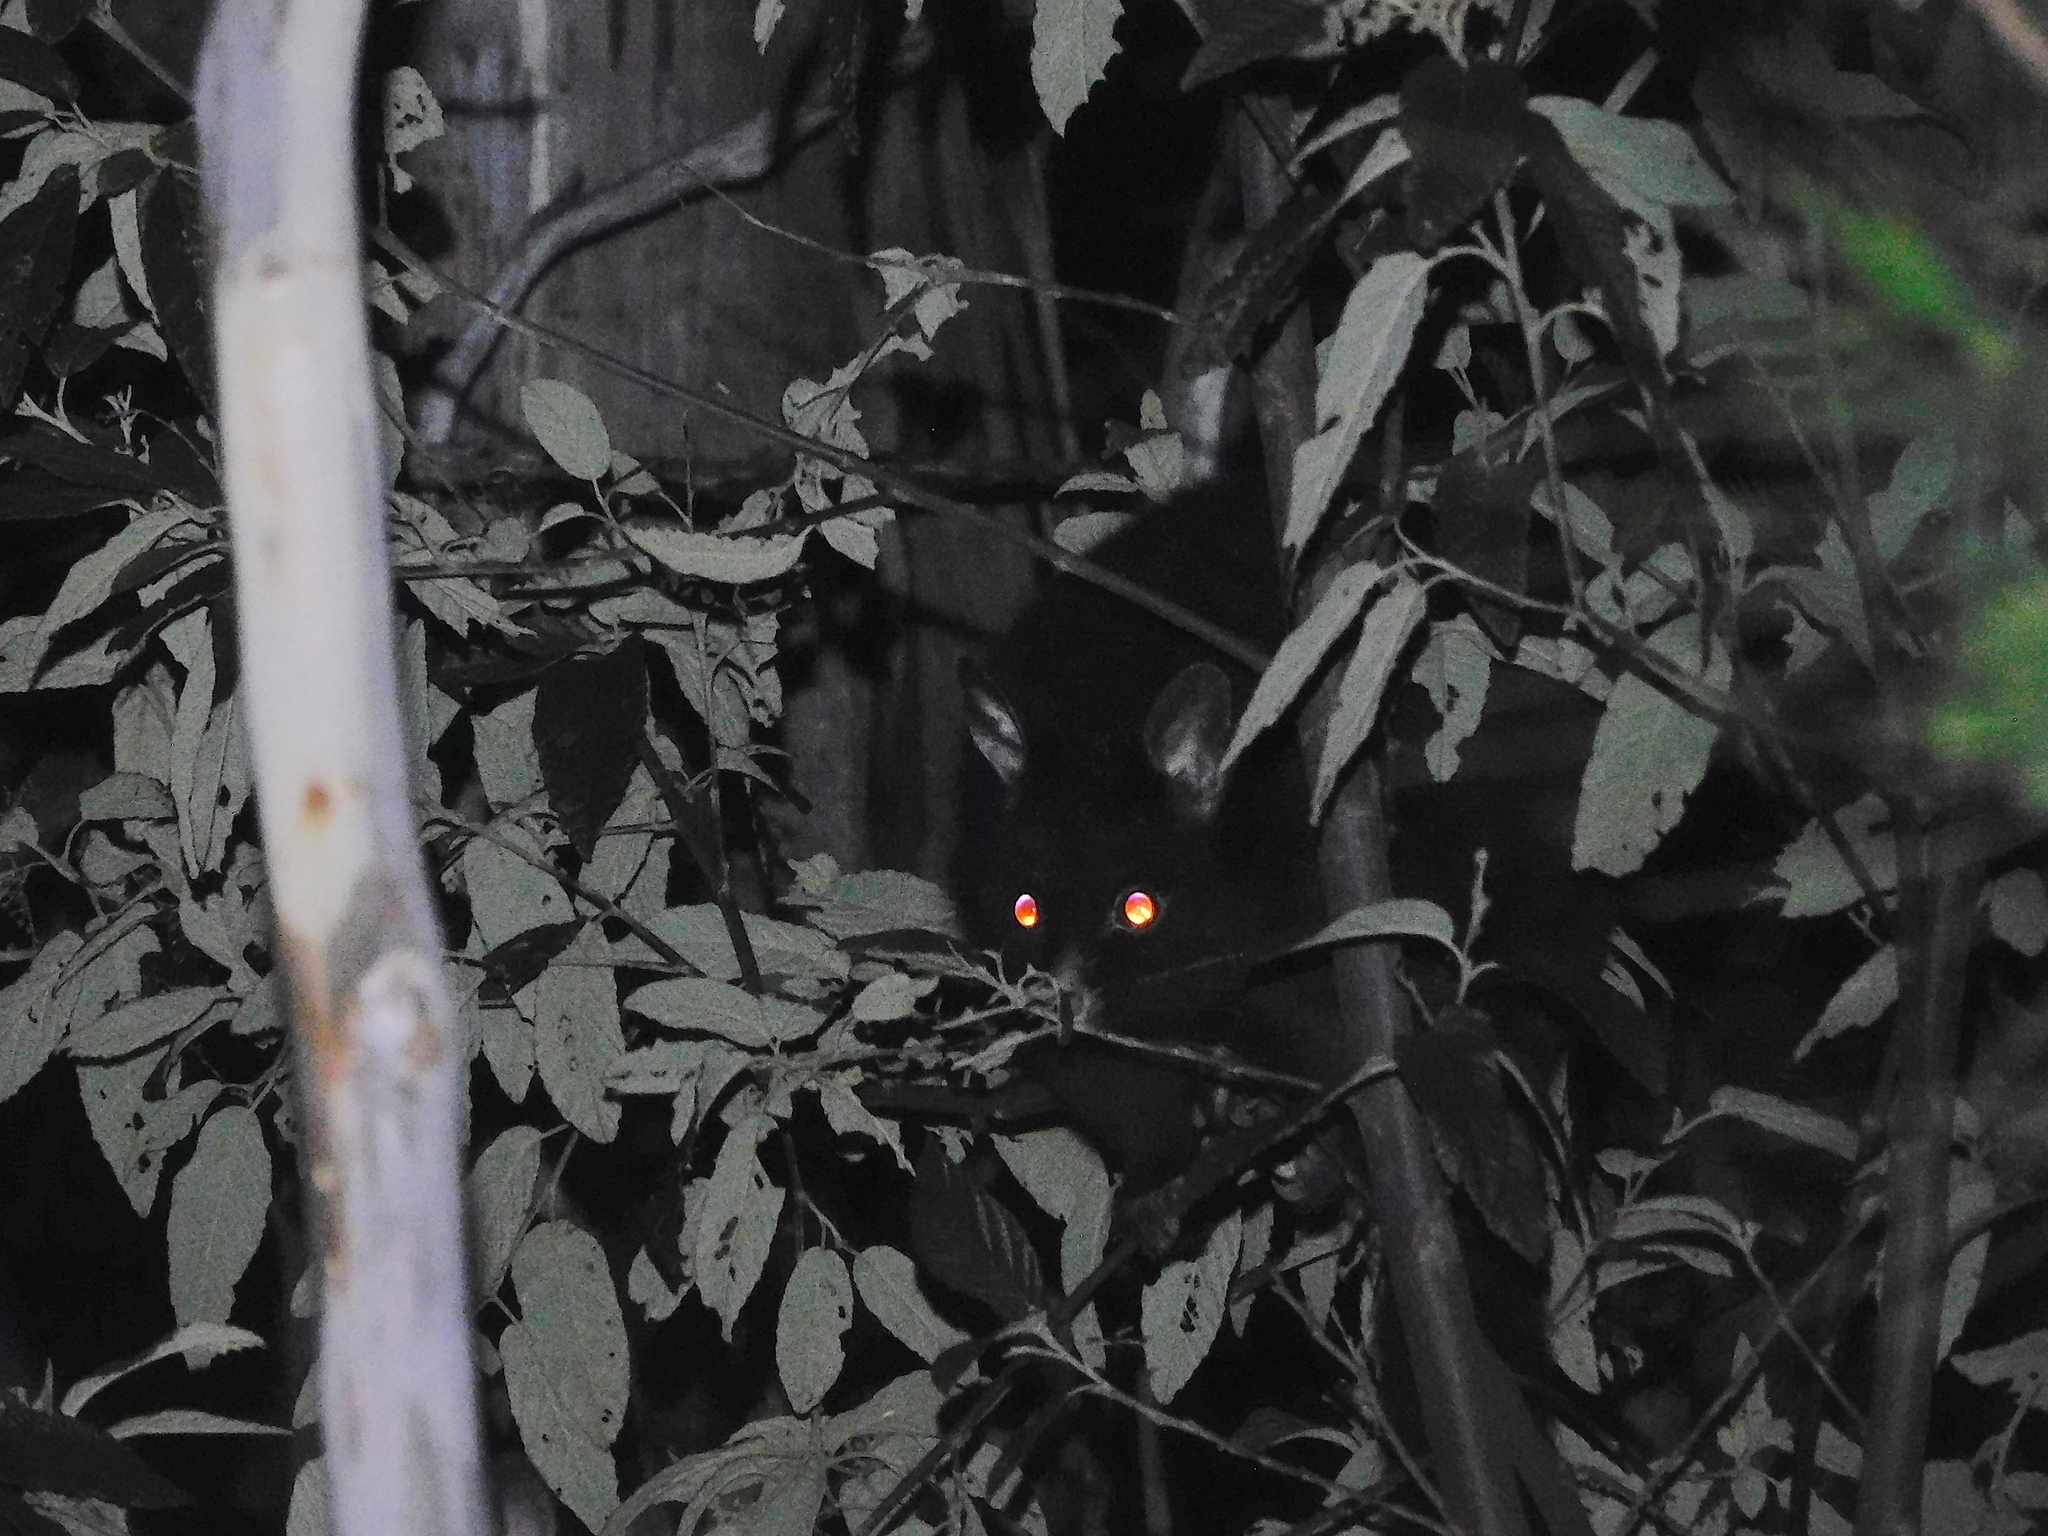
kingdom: Animalia
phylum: Chordata
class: Mammalia
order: Diprotodontia
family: Phalangeridae
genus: Trichosurus
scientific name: Trichosurus vulpecula
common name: Common brushtail
